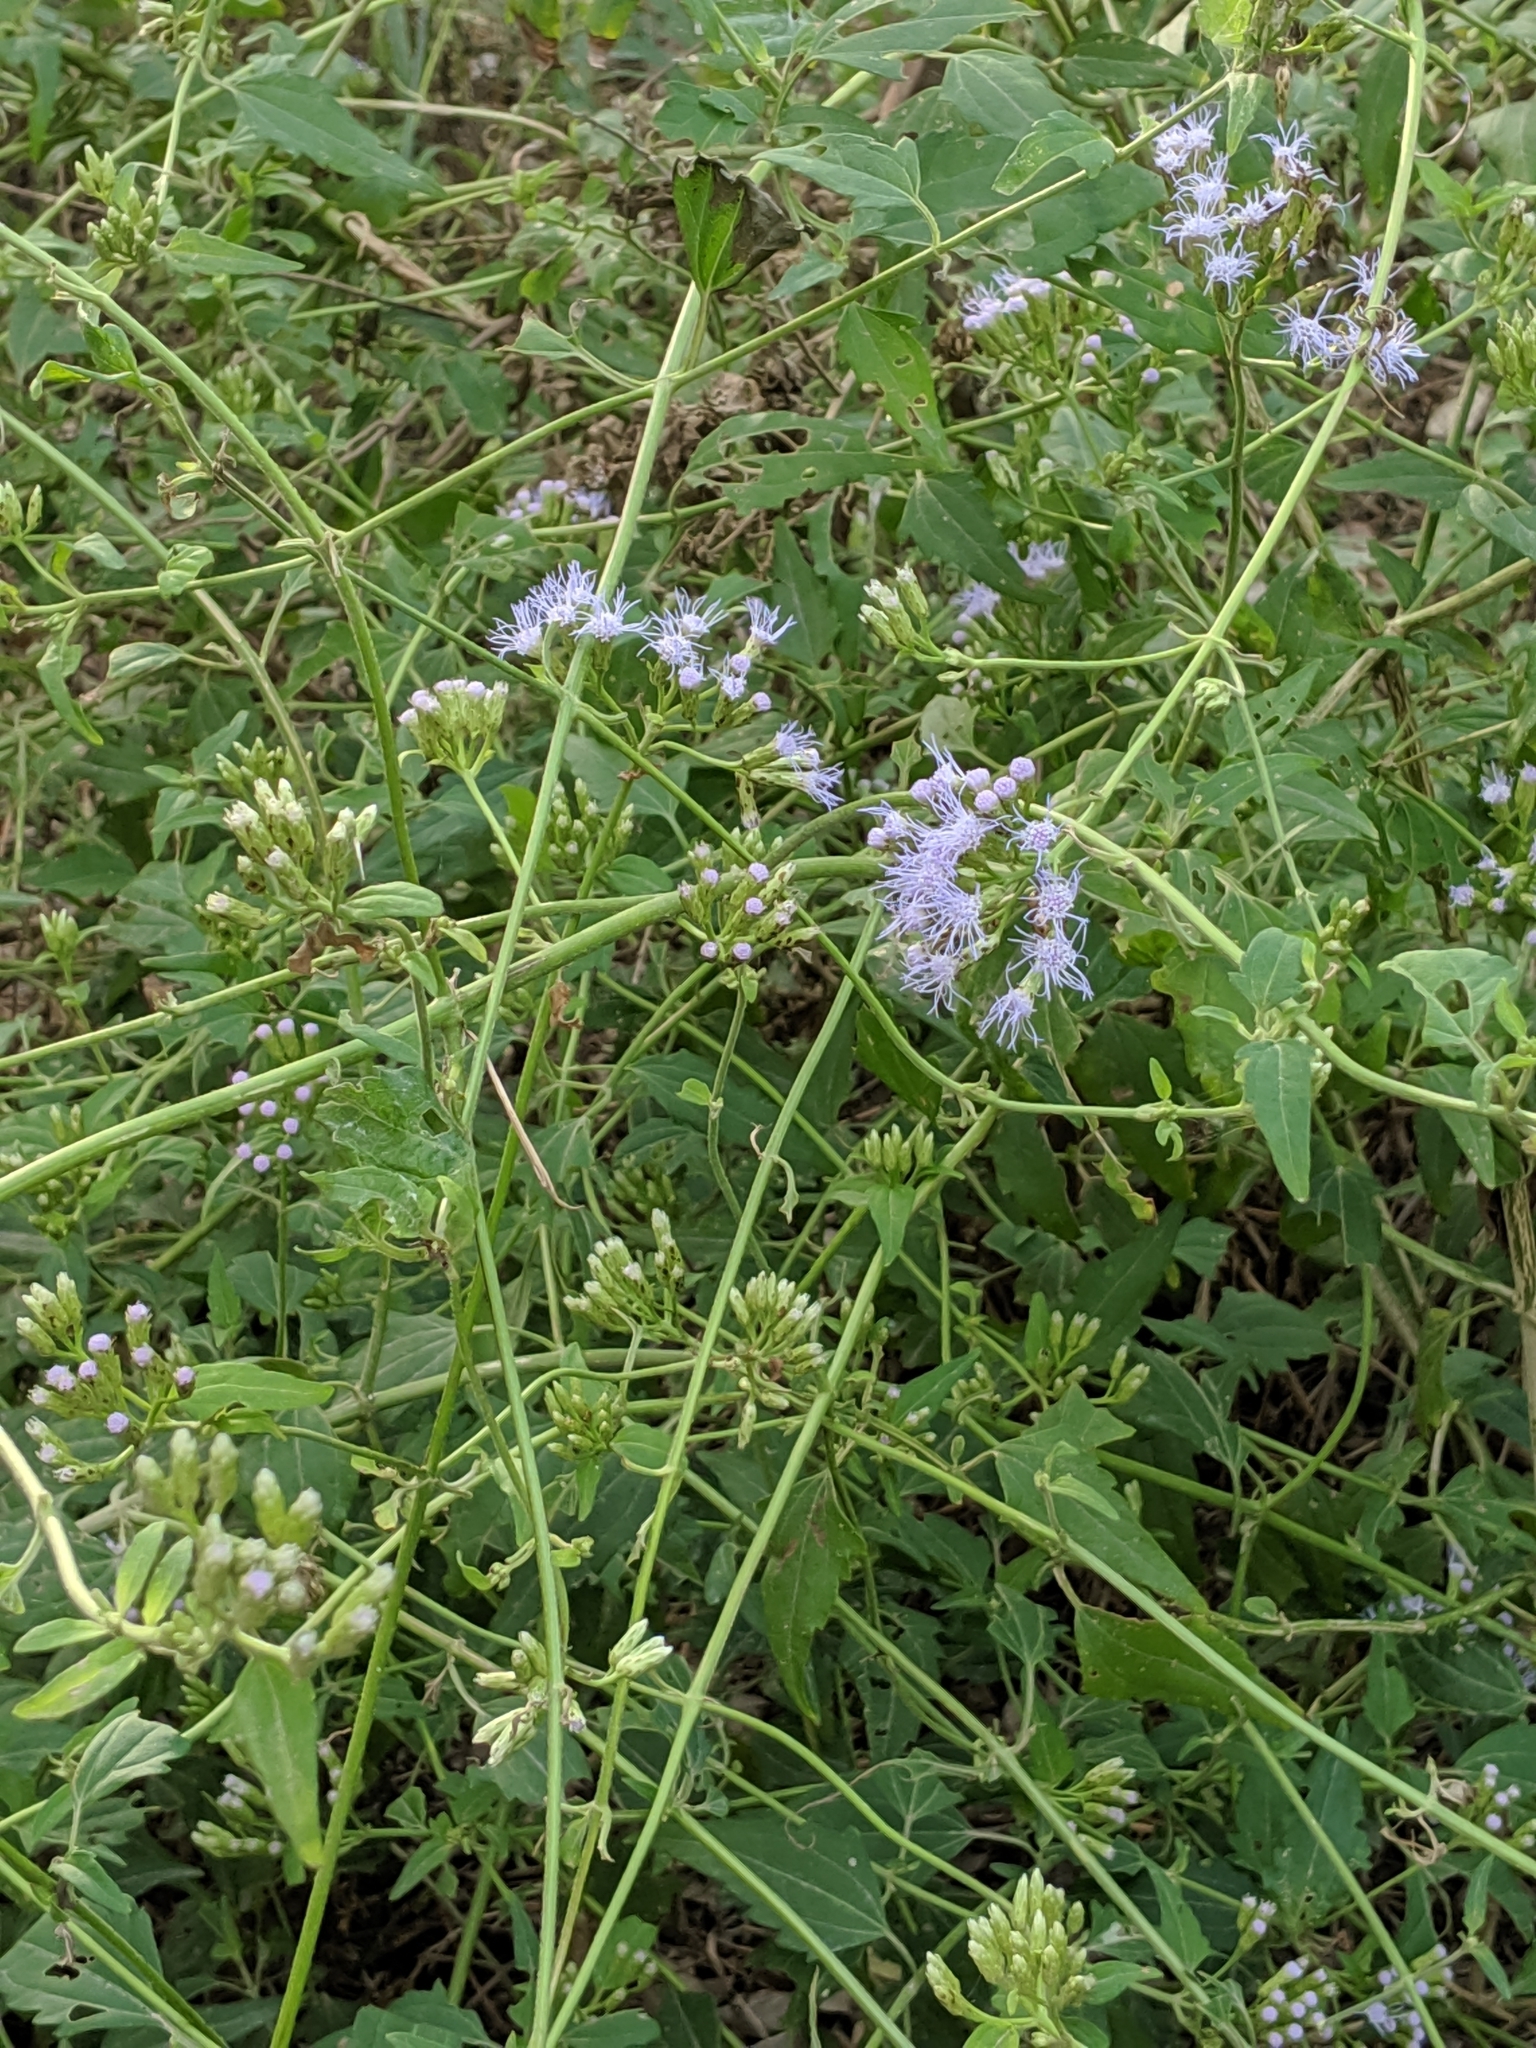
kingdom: Plantae
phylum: Tracheophyta
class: Magnoliopsida
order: Asterales
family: Asteraceae
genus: Chromolaena
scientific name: Chromolaena odorata
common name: Siamweed
